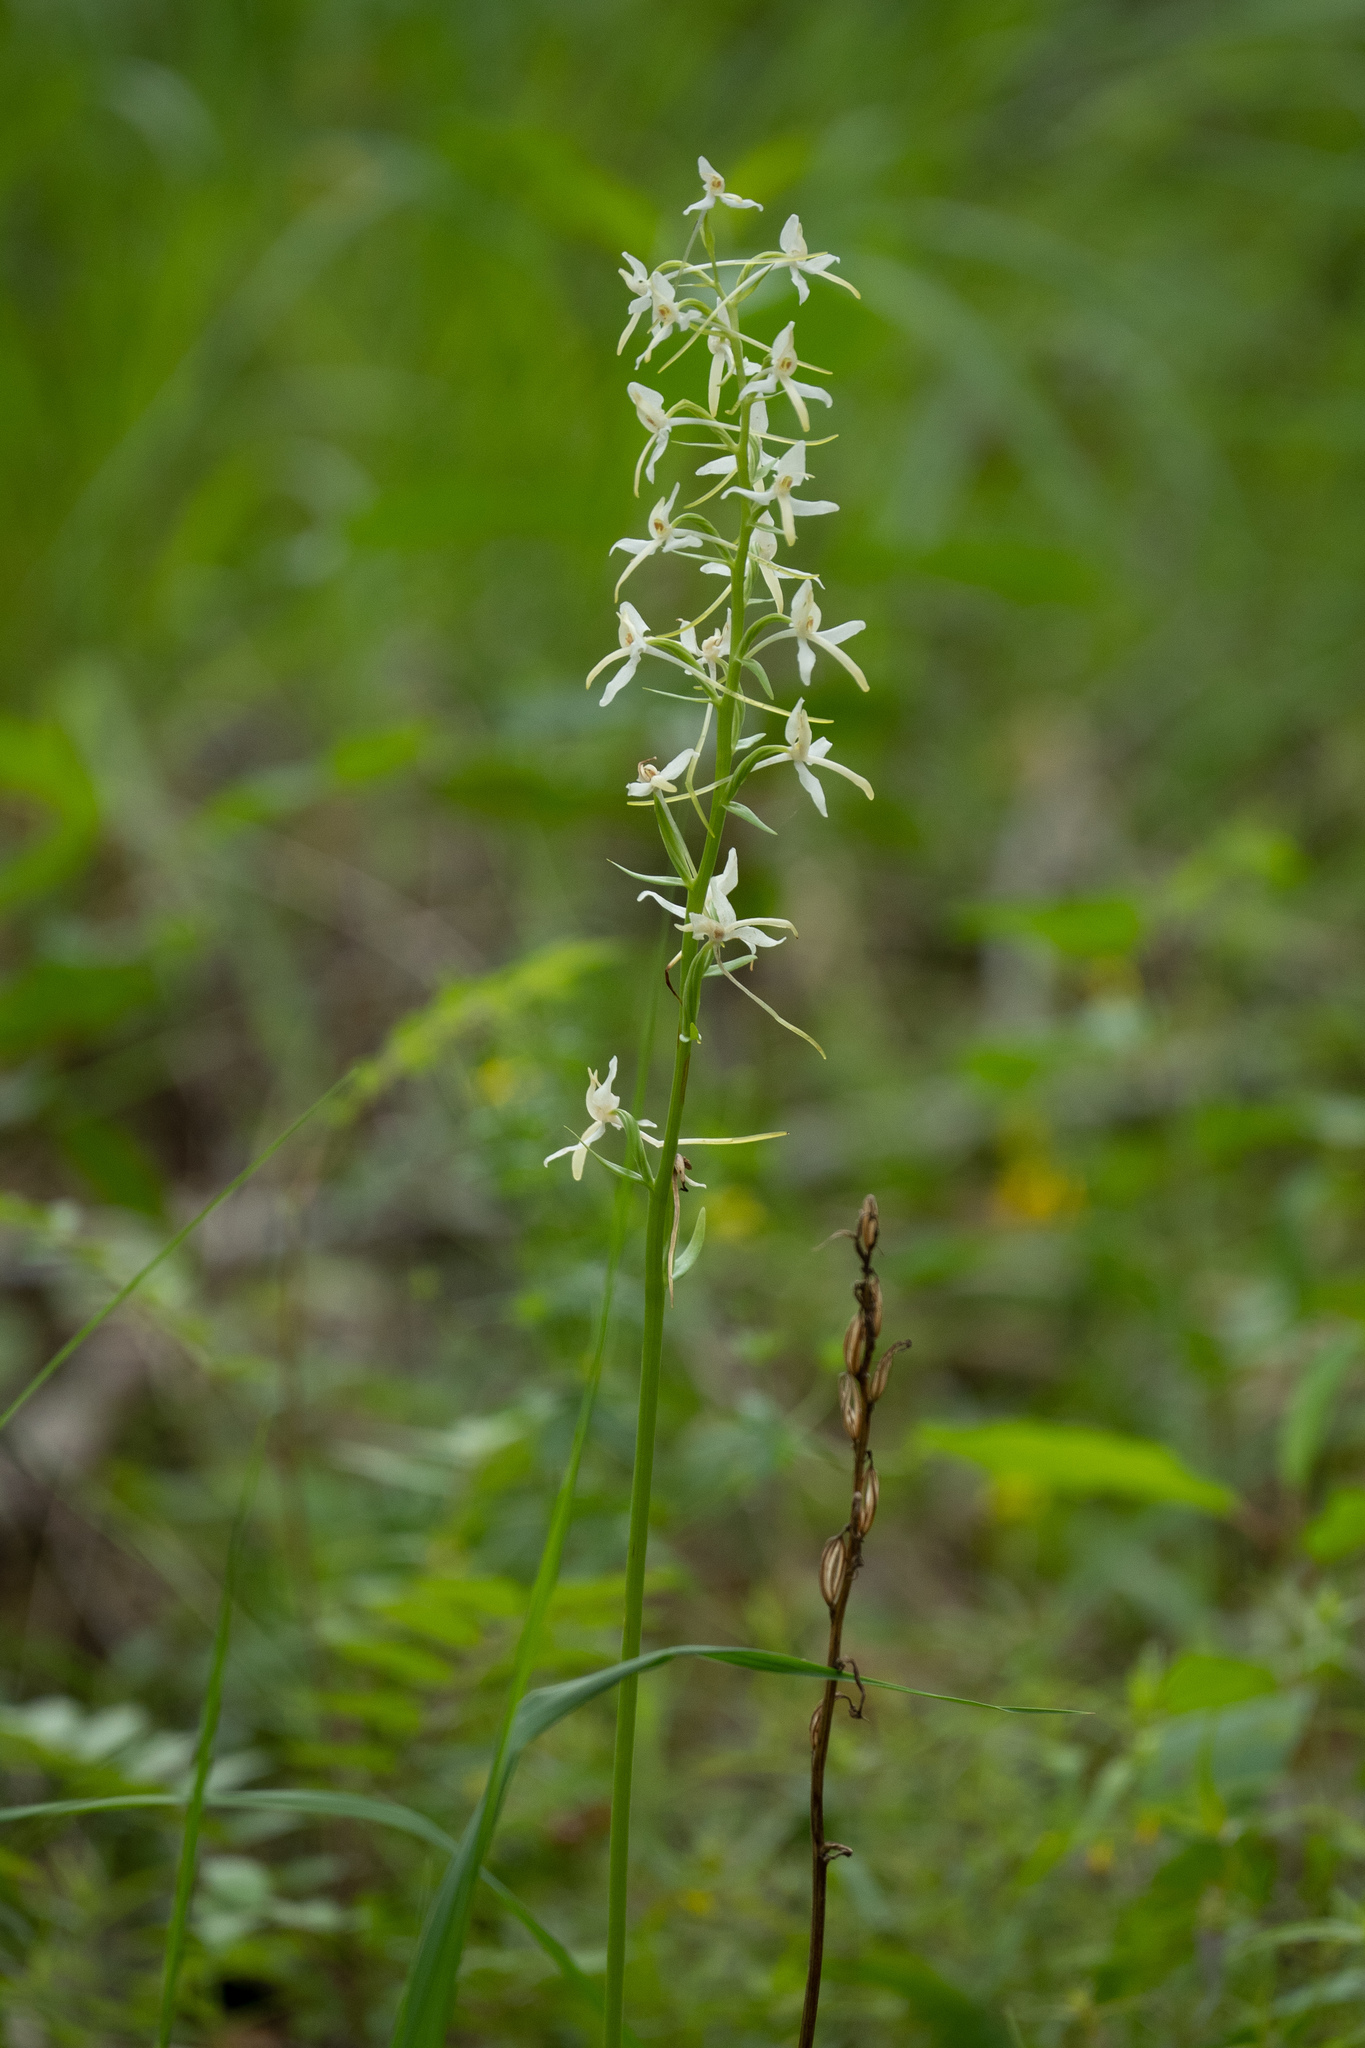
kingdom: Plantae
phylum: Tracheophyta
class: Liliopsida
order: Asparagales
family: Orchidaceae
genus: Platanthera
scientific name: Platanthera bifolia
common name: Lesser butterfly-orchid
